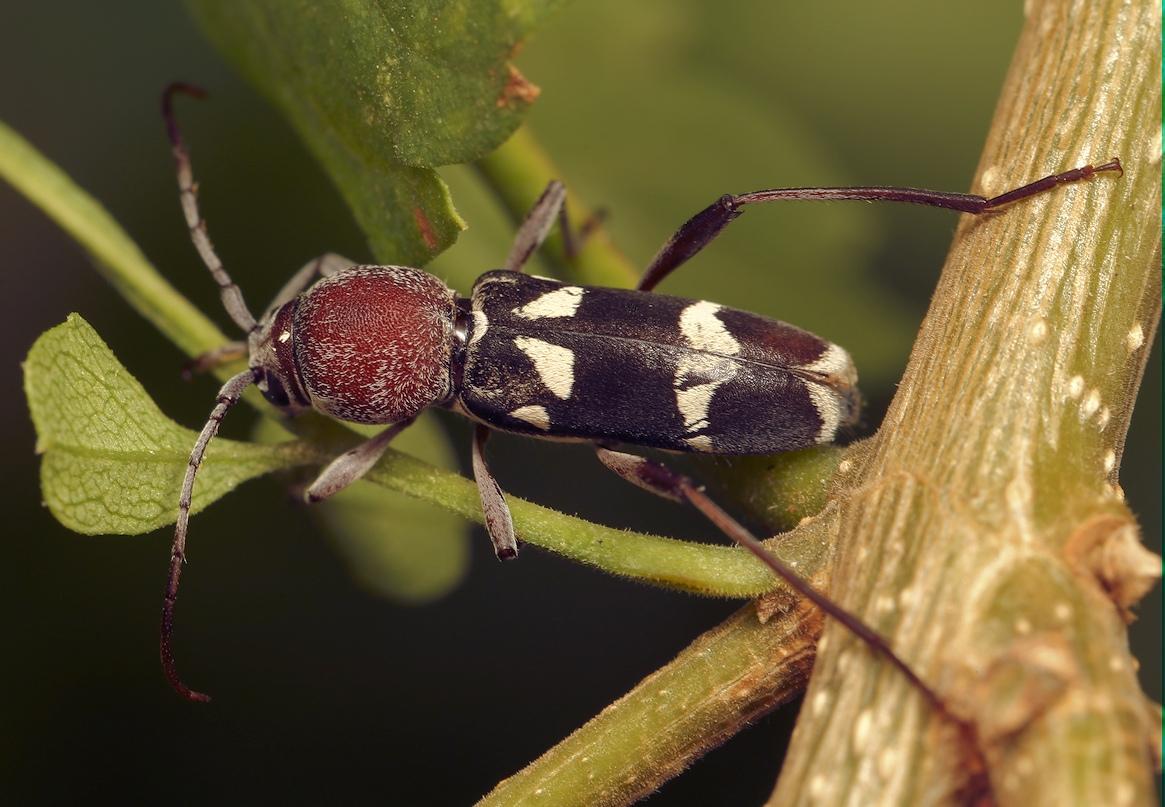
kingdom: Animalia
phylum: Arthropoda
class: Insecta
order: Coleoptera
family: Cerambycidae
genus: Chlorophorus
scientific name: Chlorophorus krantzi
